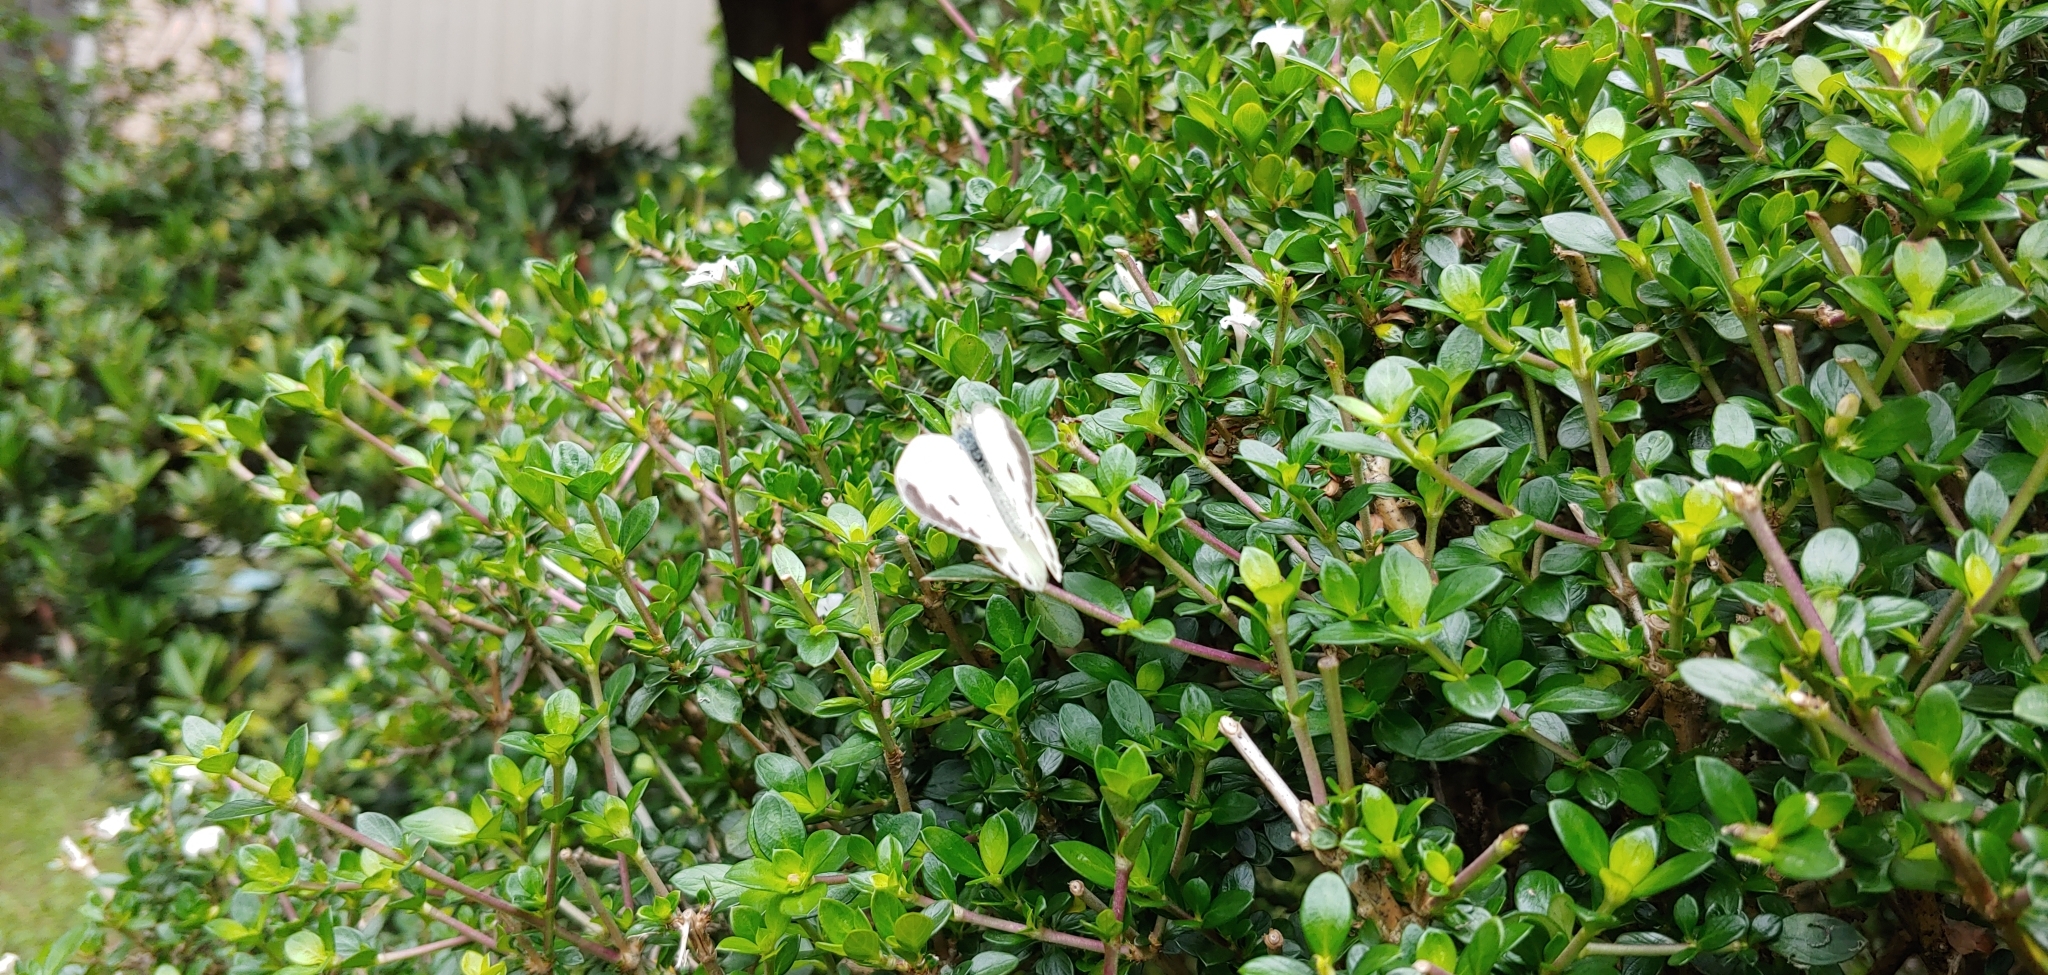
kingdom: Animalia
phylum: Arthropoda
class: Insecta
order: Lepidoptera
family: Pieridae
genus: Pieris
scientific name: Pieris canidia
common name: Indian cabbage white
